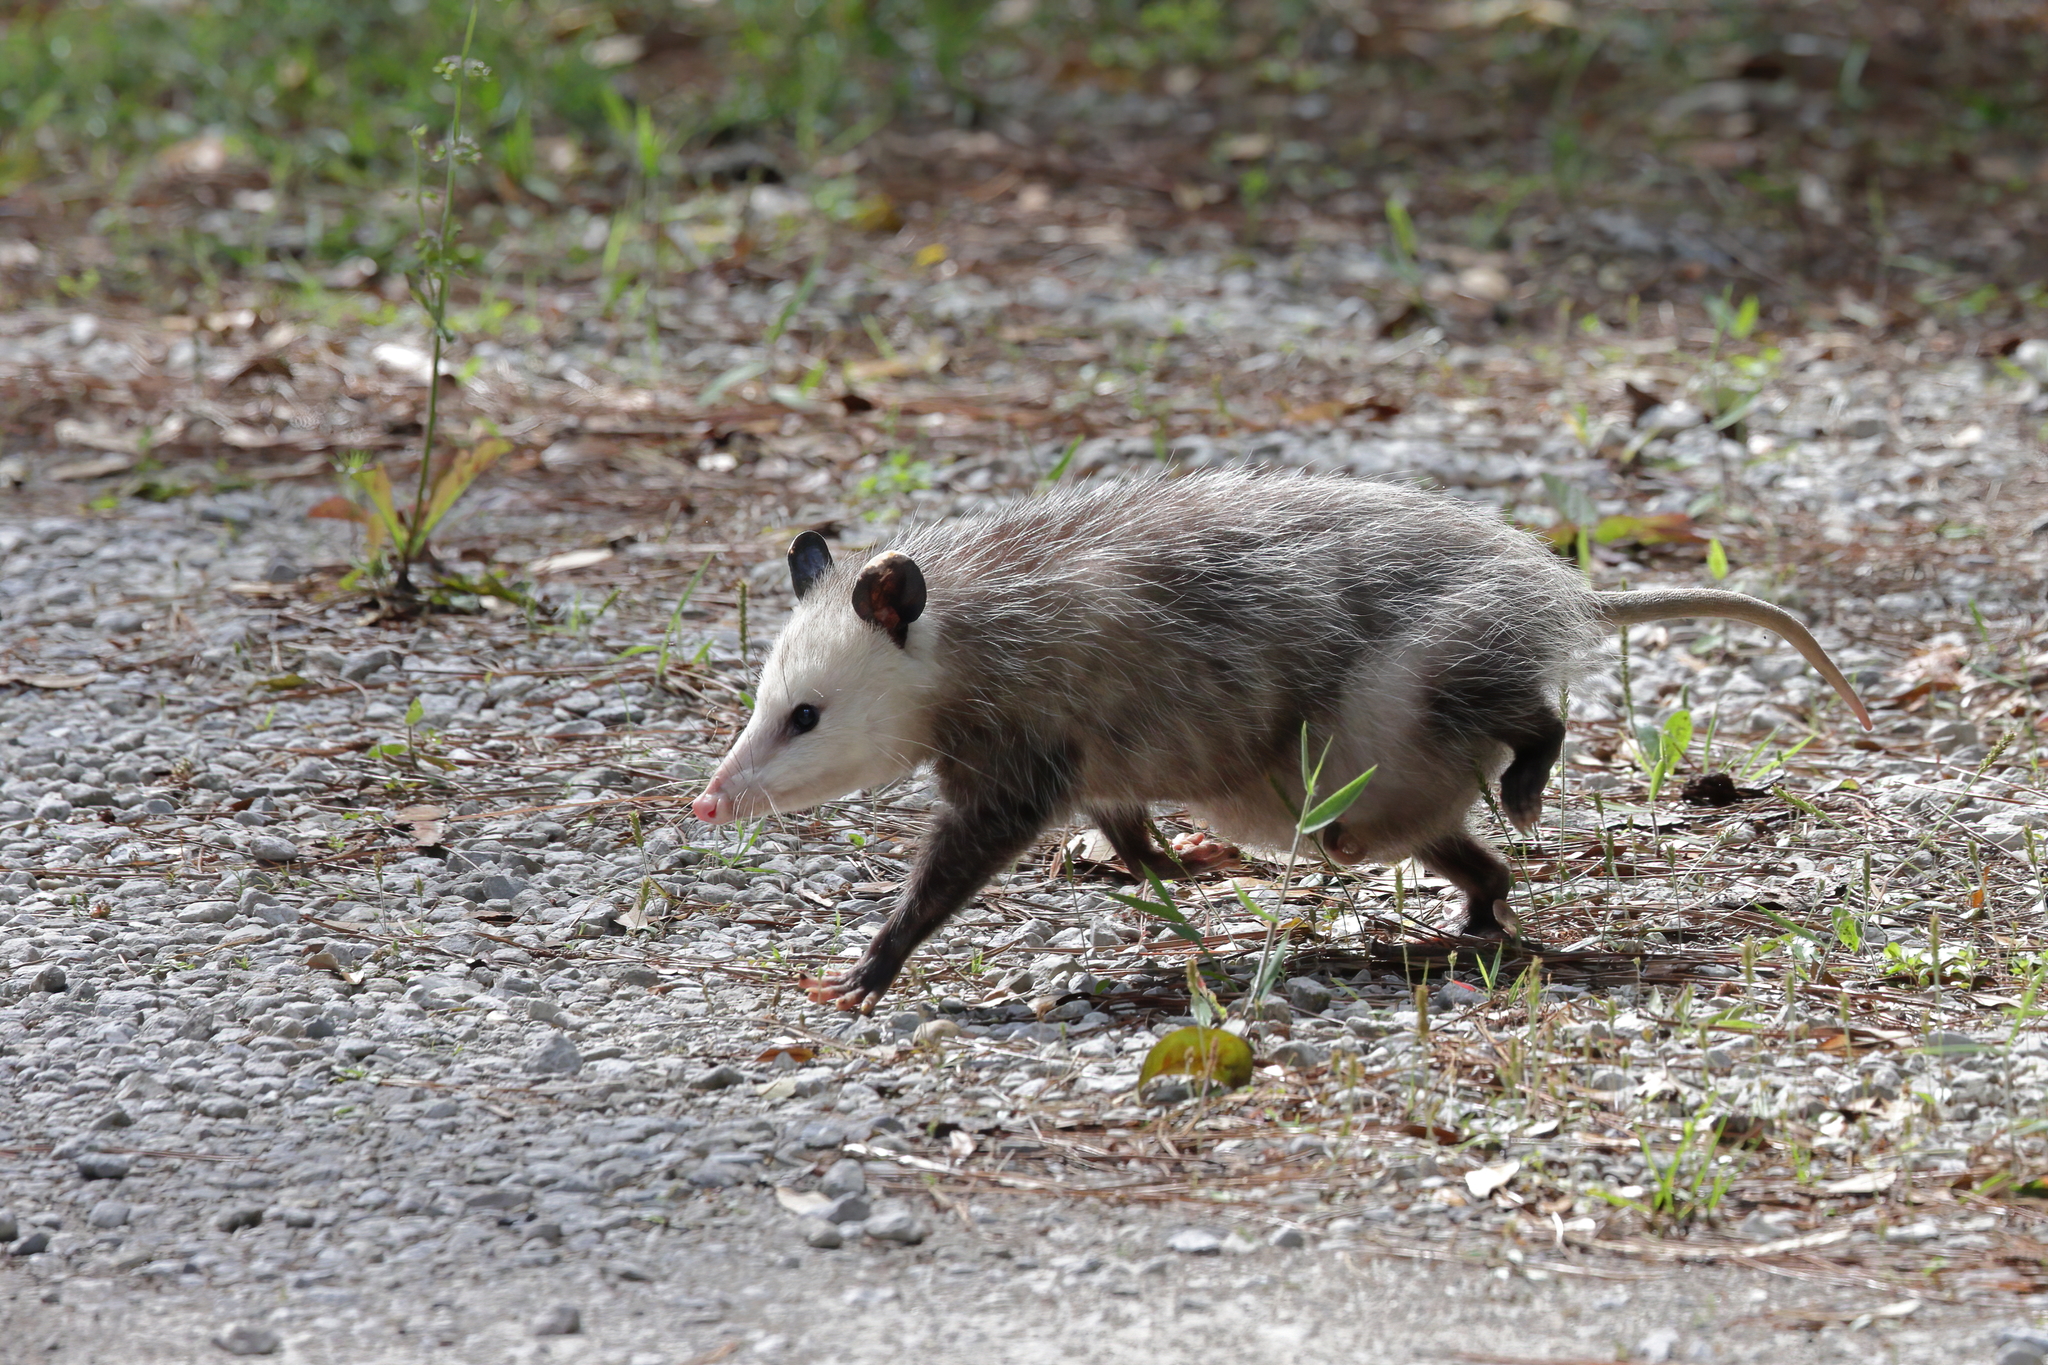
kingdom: Animalia
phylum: Chordata
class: Mammalia
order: Didelphimorphia
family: Didelphidae
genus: Didelphis
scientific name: Didelphis virginiana
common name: Virginia opossum
